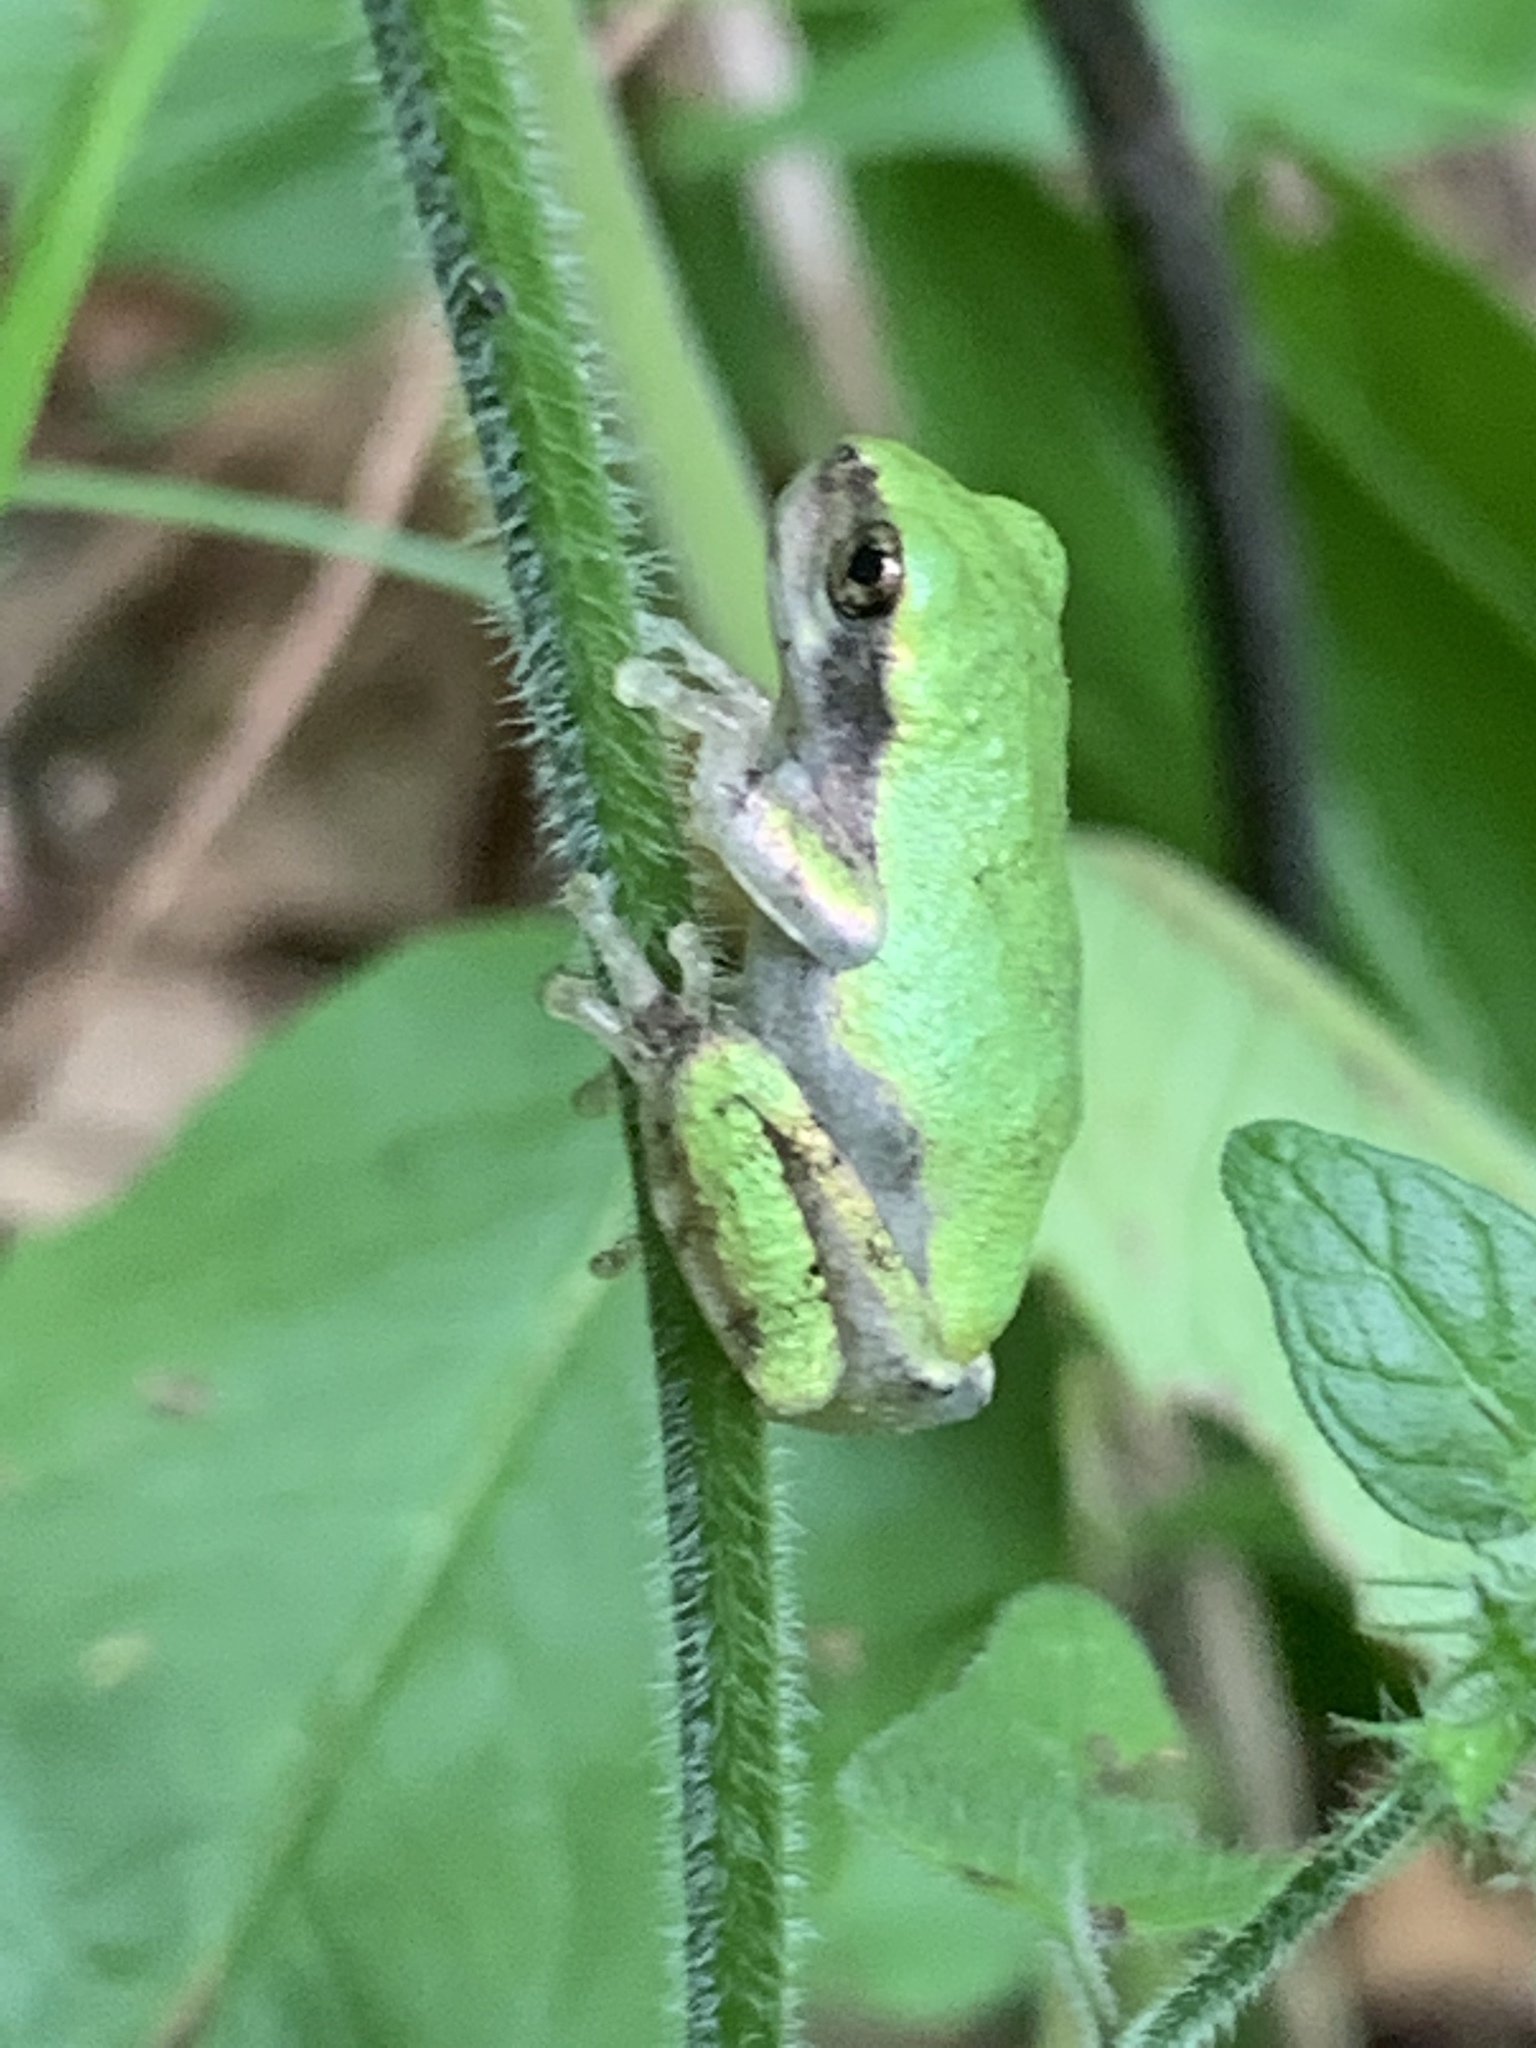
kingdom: Animalia
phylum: Chordata
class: Amphibia
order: Anura
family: Hylidae
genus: Dryophytes
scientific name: Dryophytes versicolor
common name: Gray treefrog
